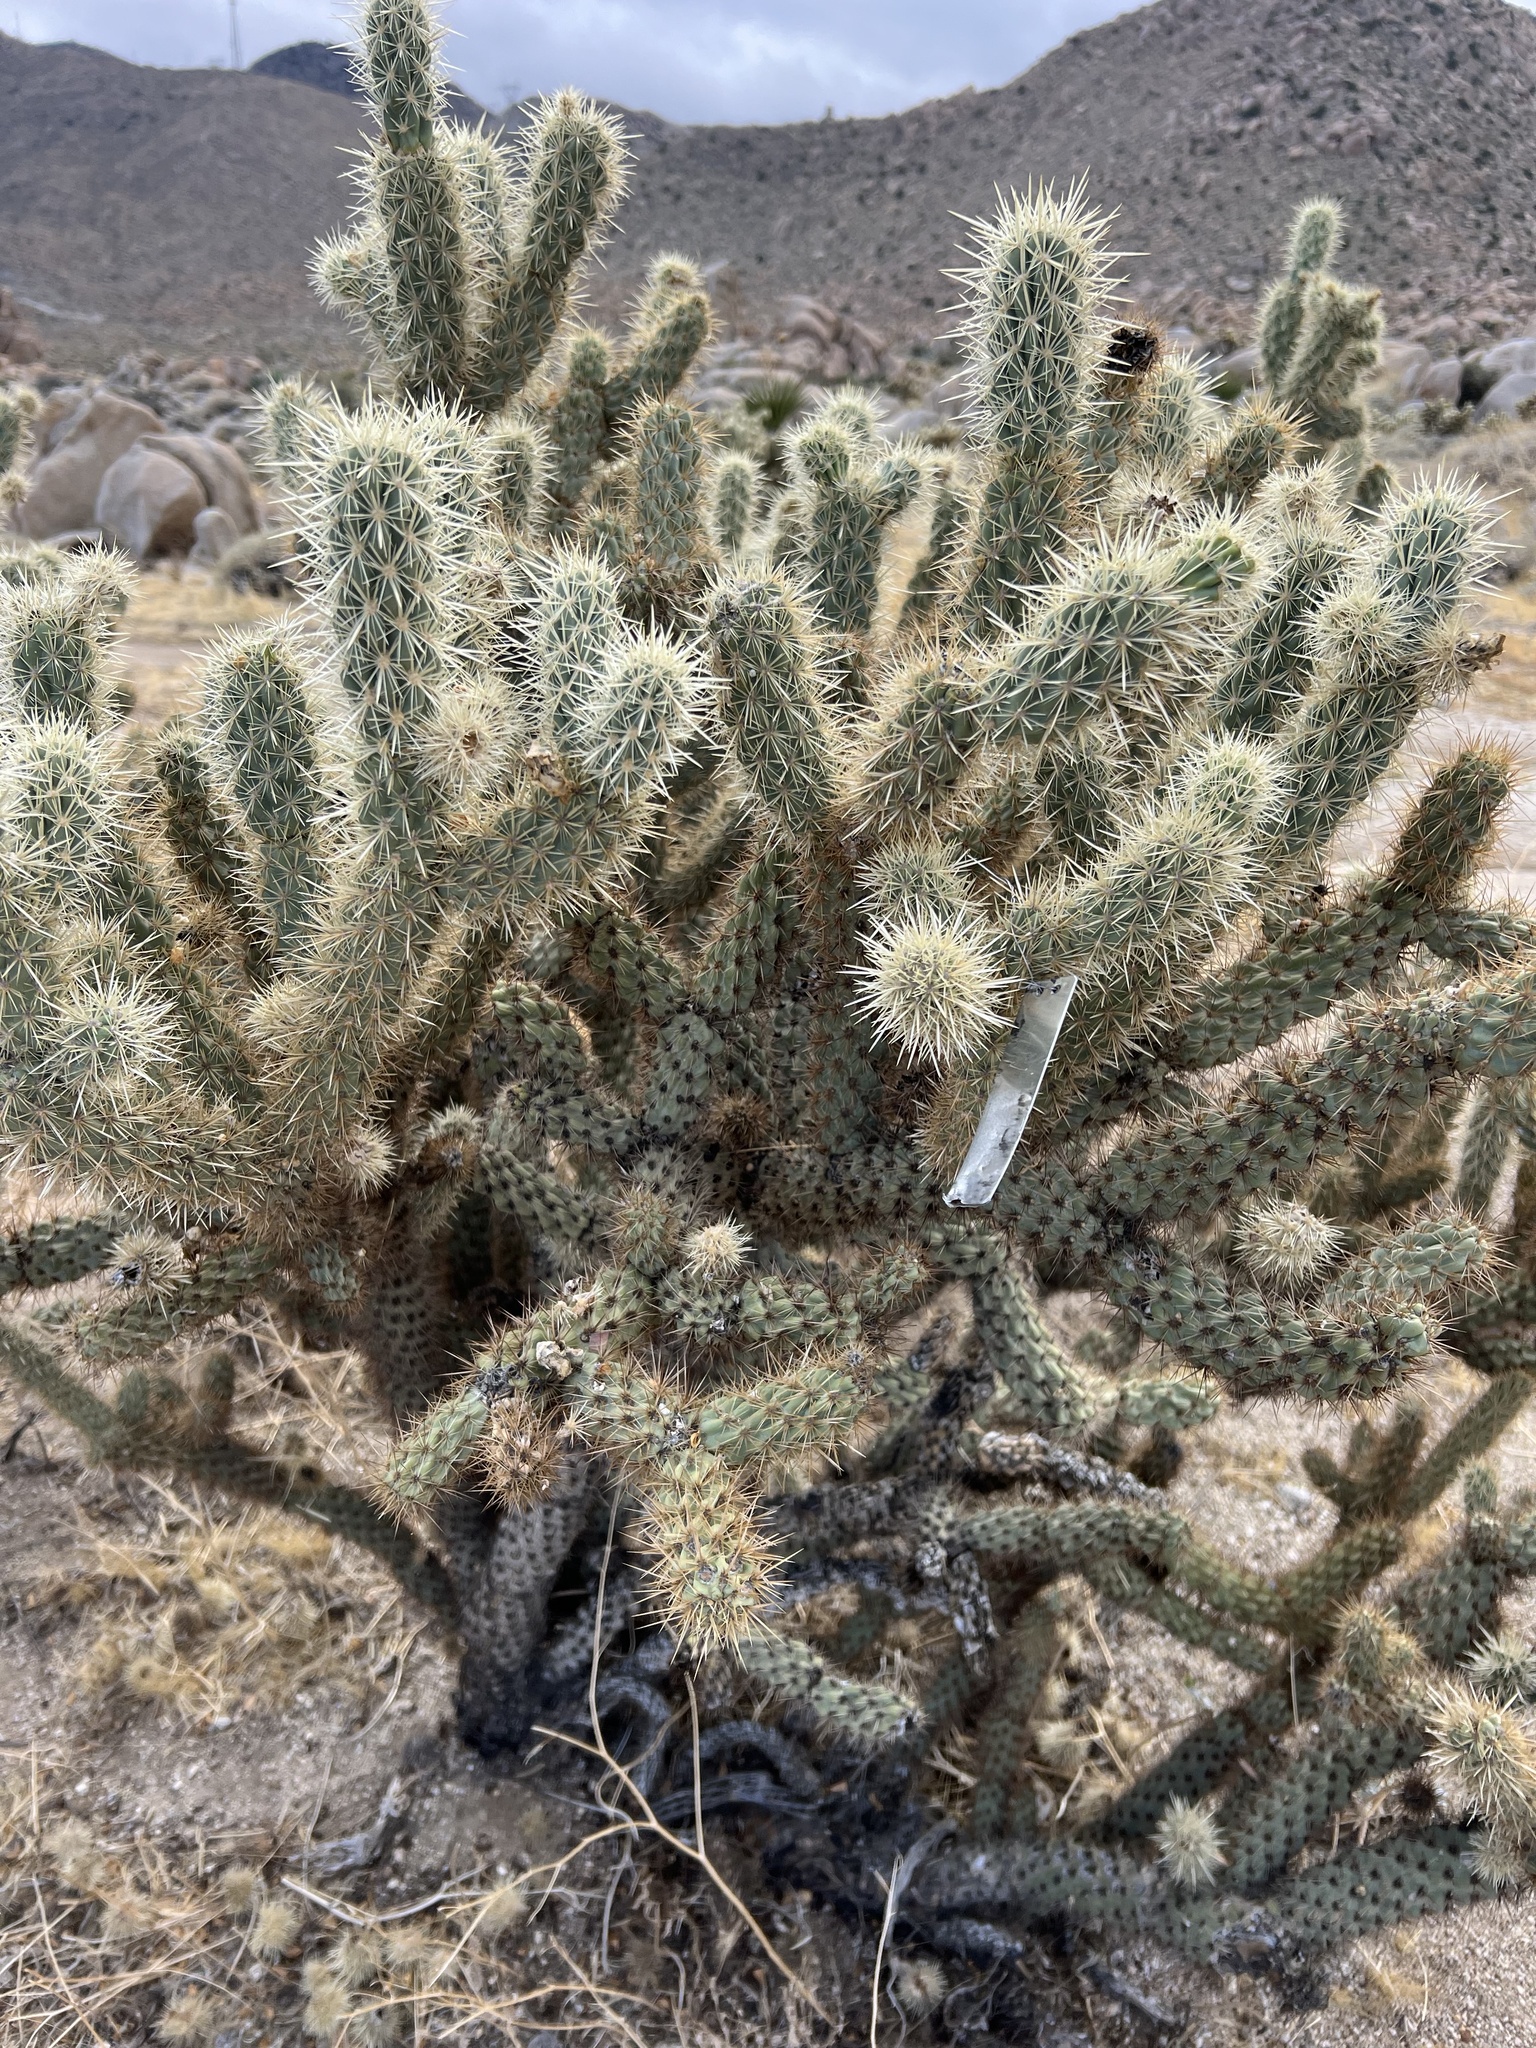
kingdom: Plantae
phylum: Tracheophyta
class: Magnoliopsida
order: Caryophyllales
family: Cactaceae
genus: Cylindropuntia
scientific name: Cylindropuntia ganderi
